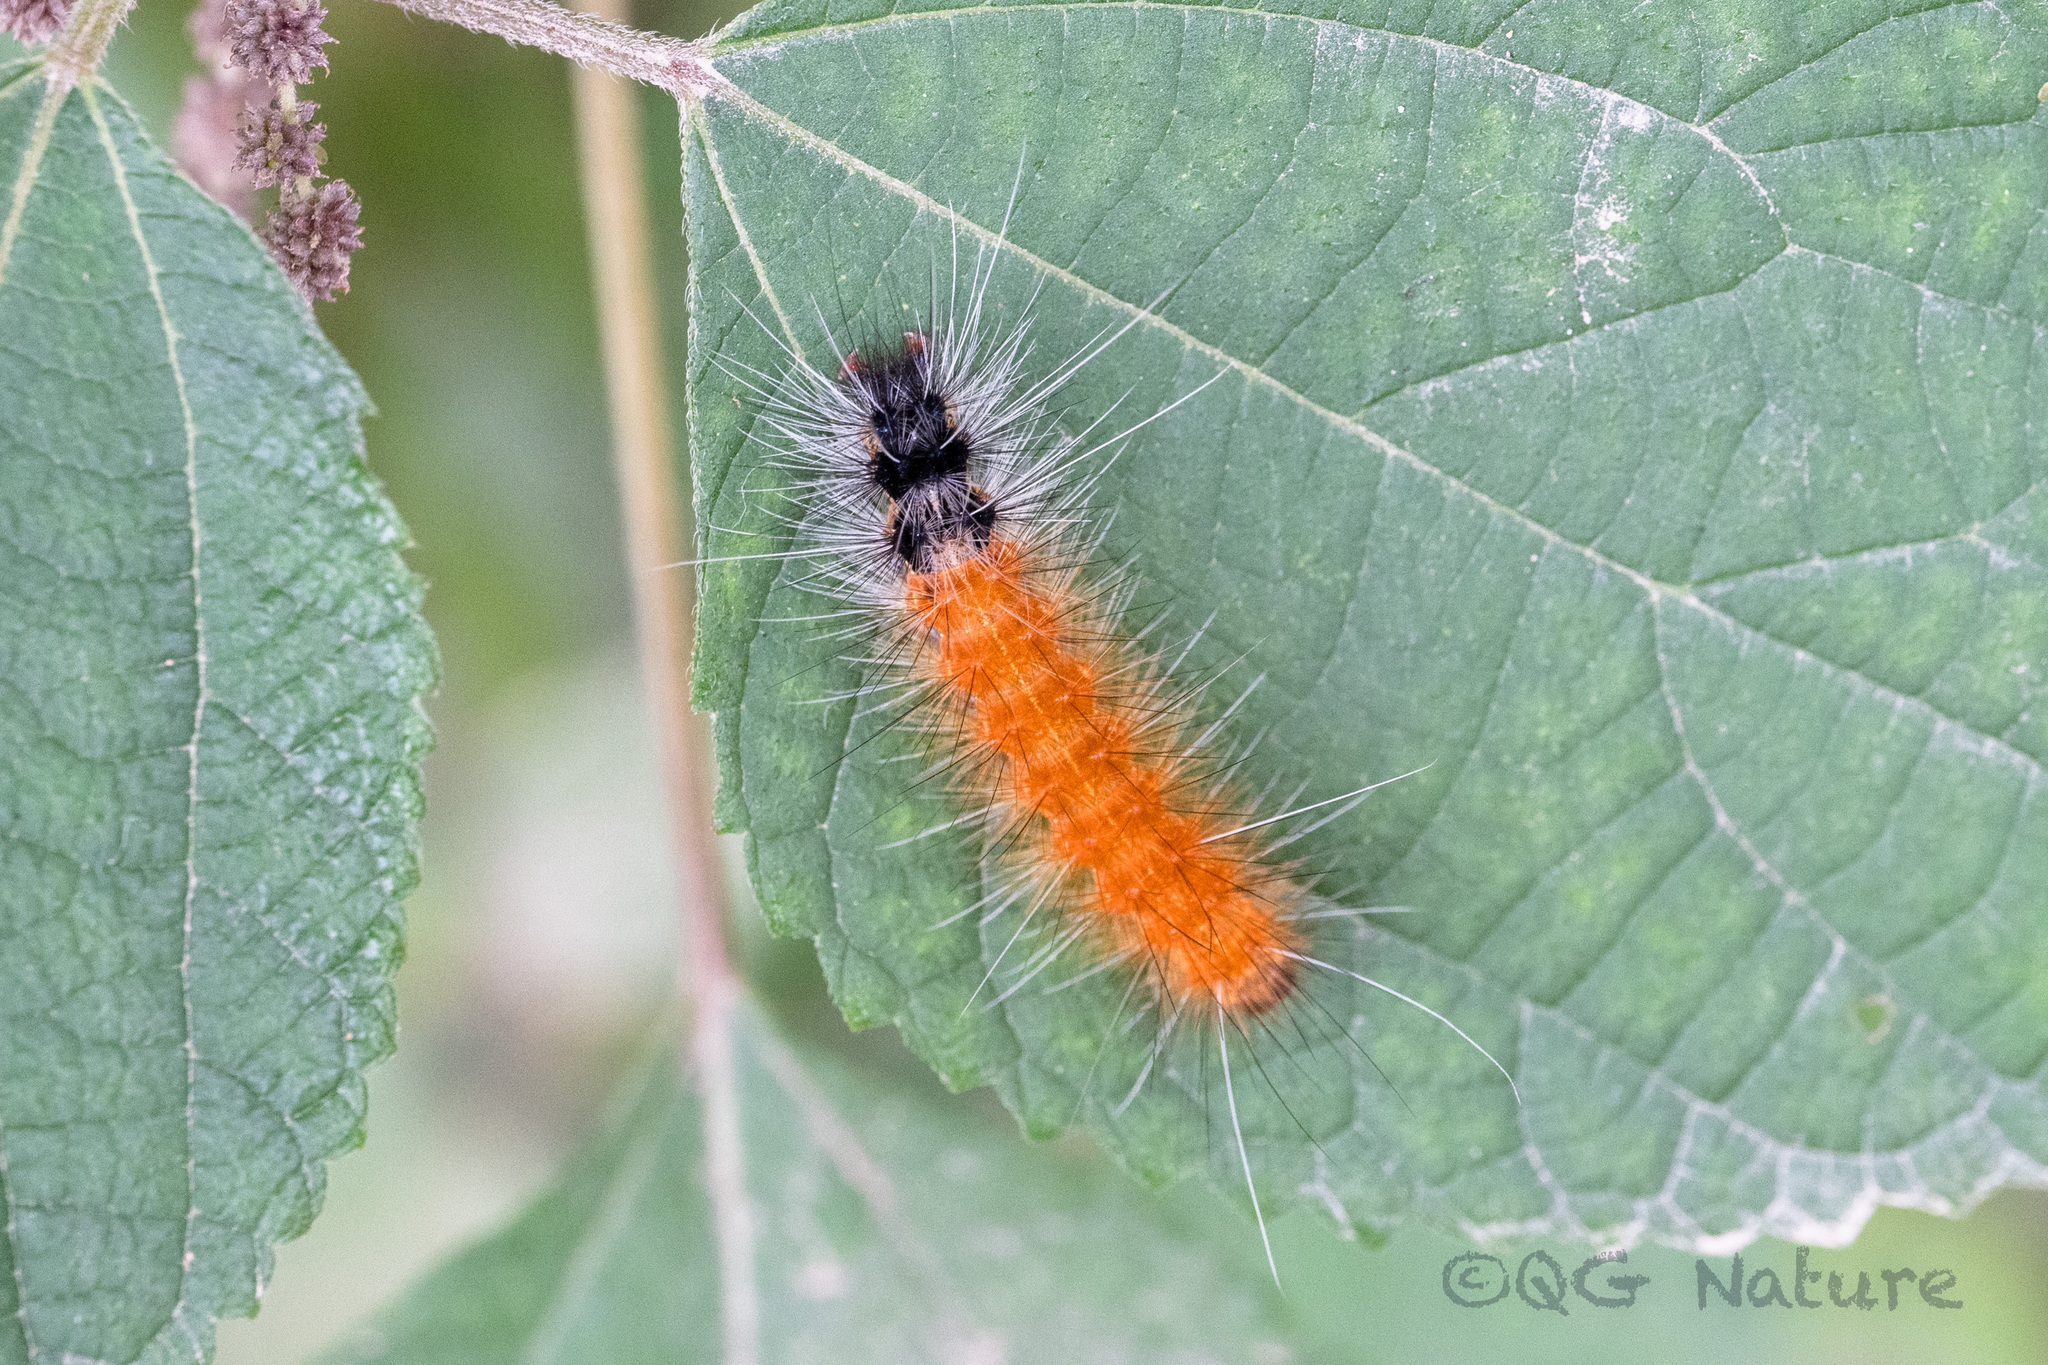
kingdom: Animalia
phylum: Arthropoda
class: Insecta
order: Lepidoptera
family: Erebidae
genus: Spilarctia
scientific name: Spilarctia nydia
